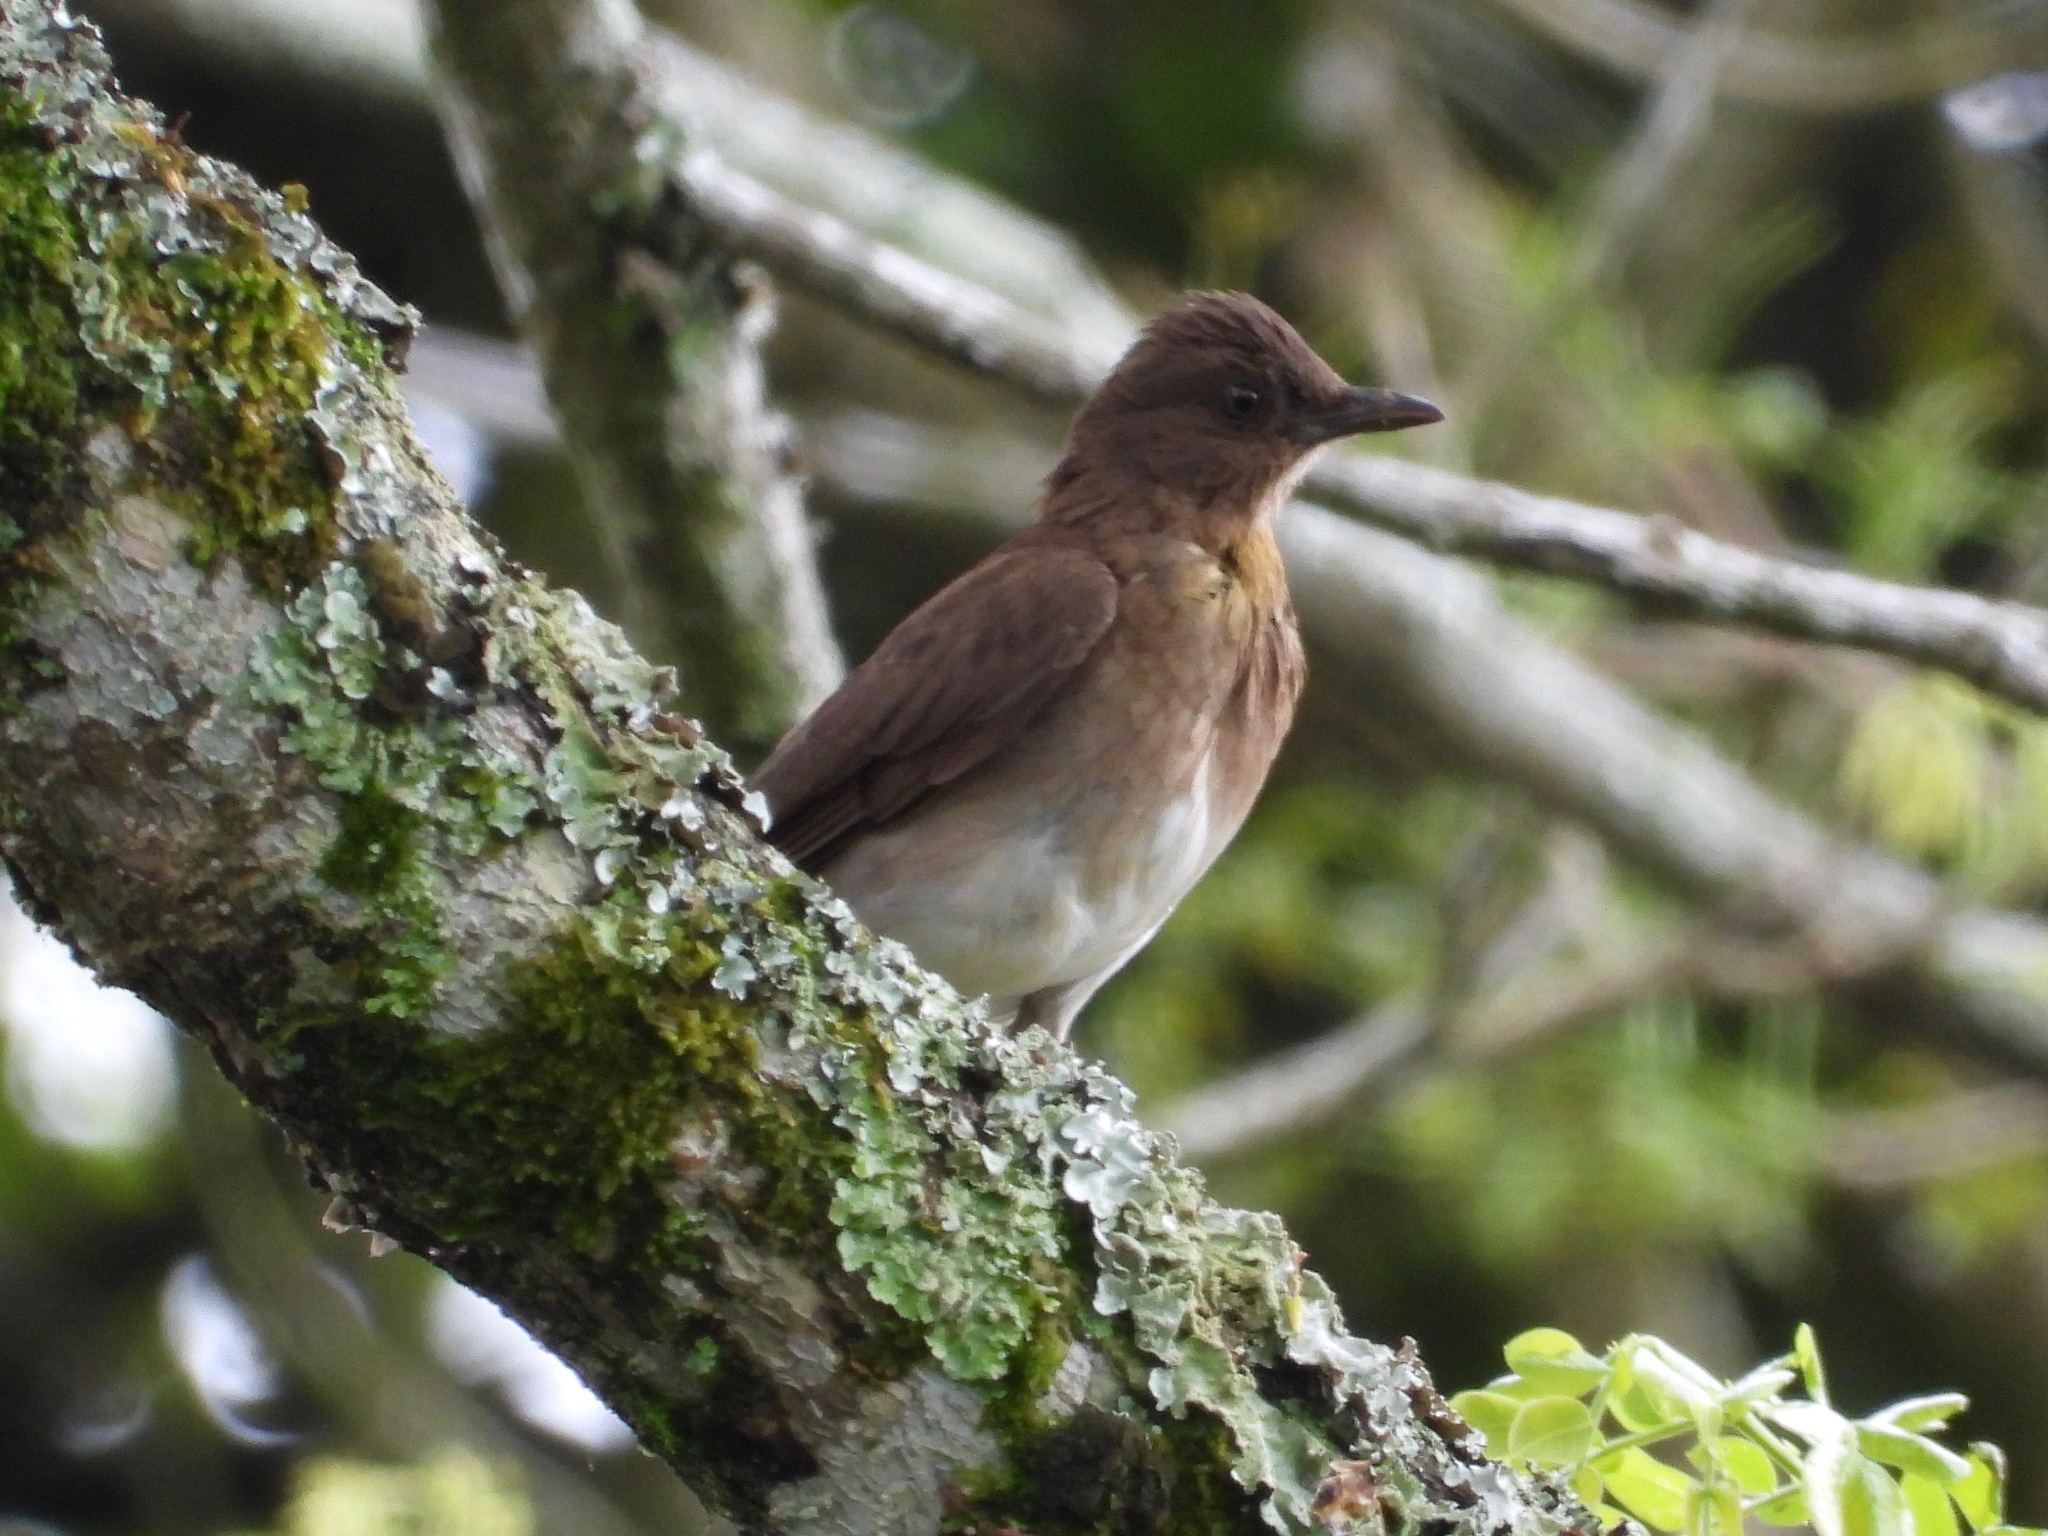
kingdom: Animalia
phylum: Chordata
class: Aves
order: Passeriformes
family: Turdidae
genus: Turdus
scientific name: Turdus ignobilis
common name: Black-billed thrush
